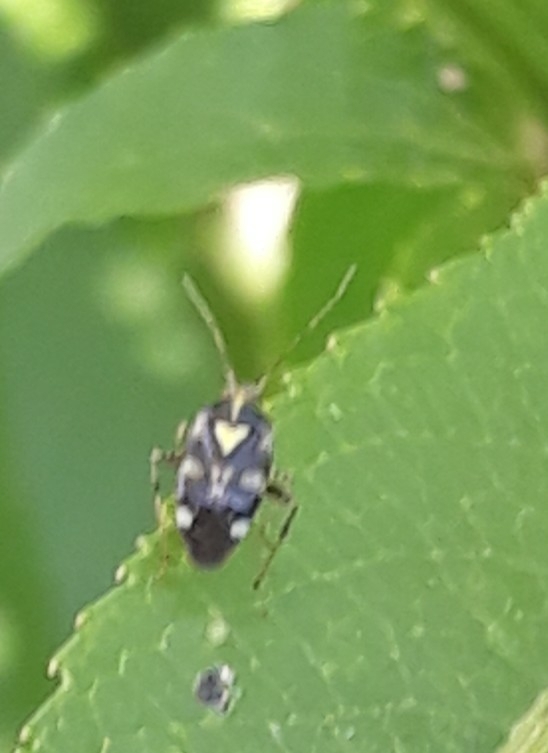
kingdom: Animalia
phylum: Arthropoda
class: Insecta
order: Hemiptera
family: Miridae
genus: Liocoris
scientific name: Liocoris tripustulatus
